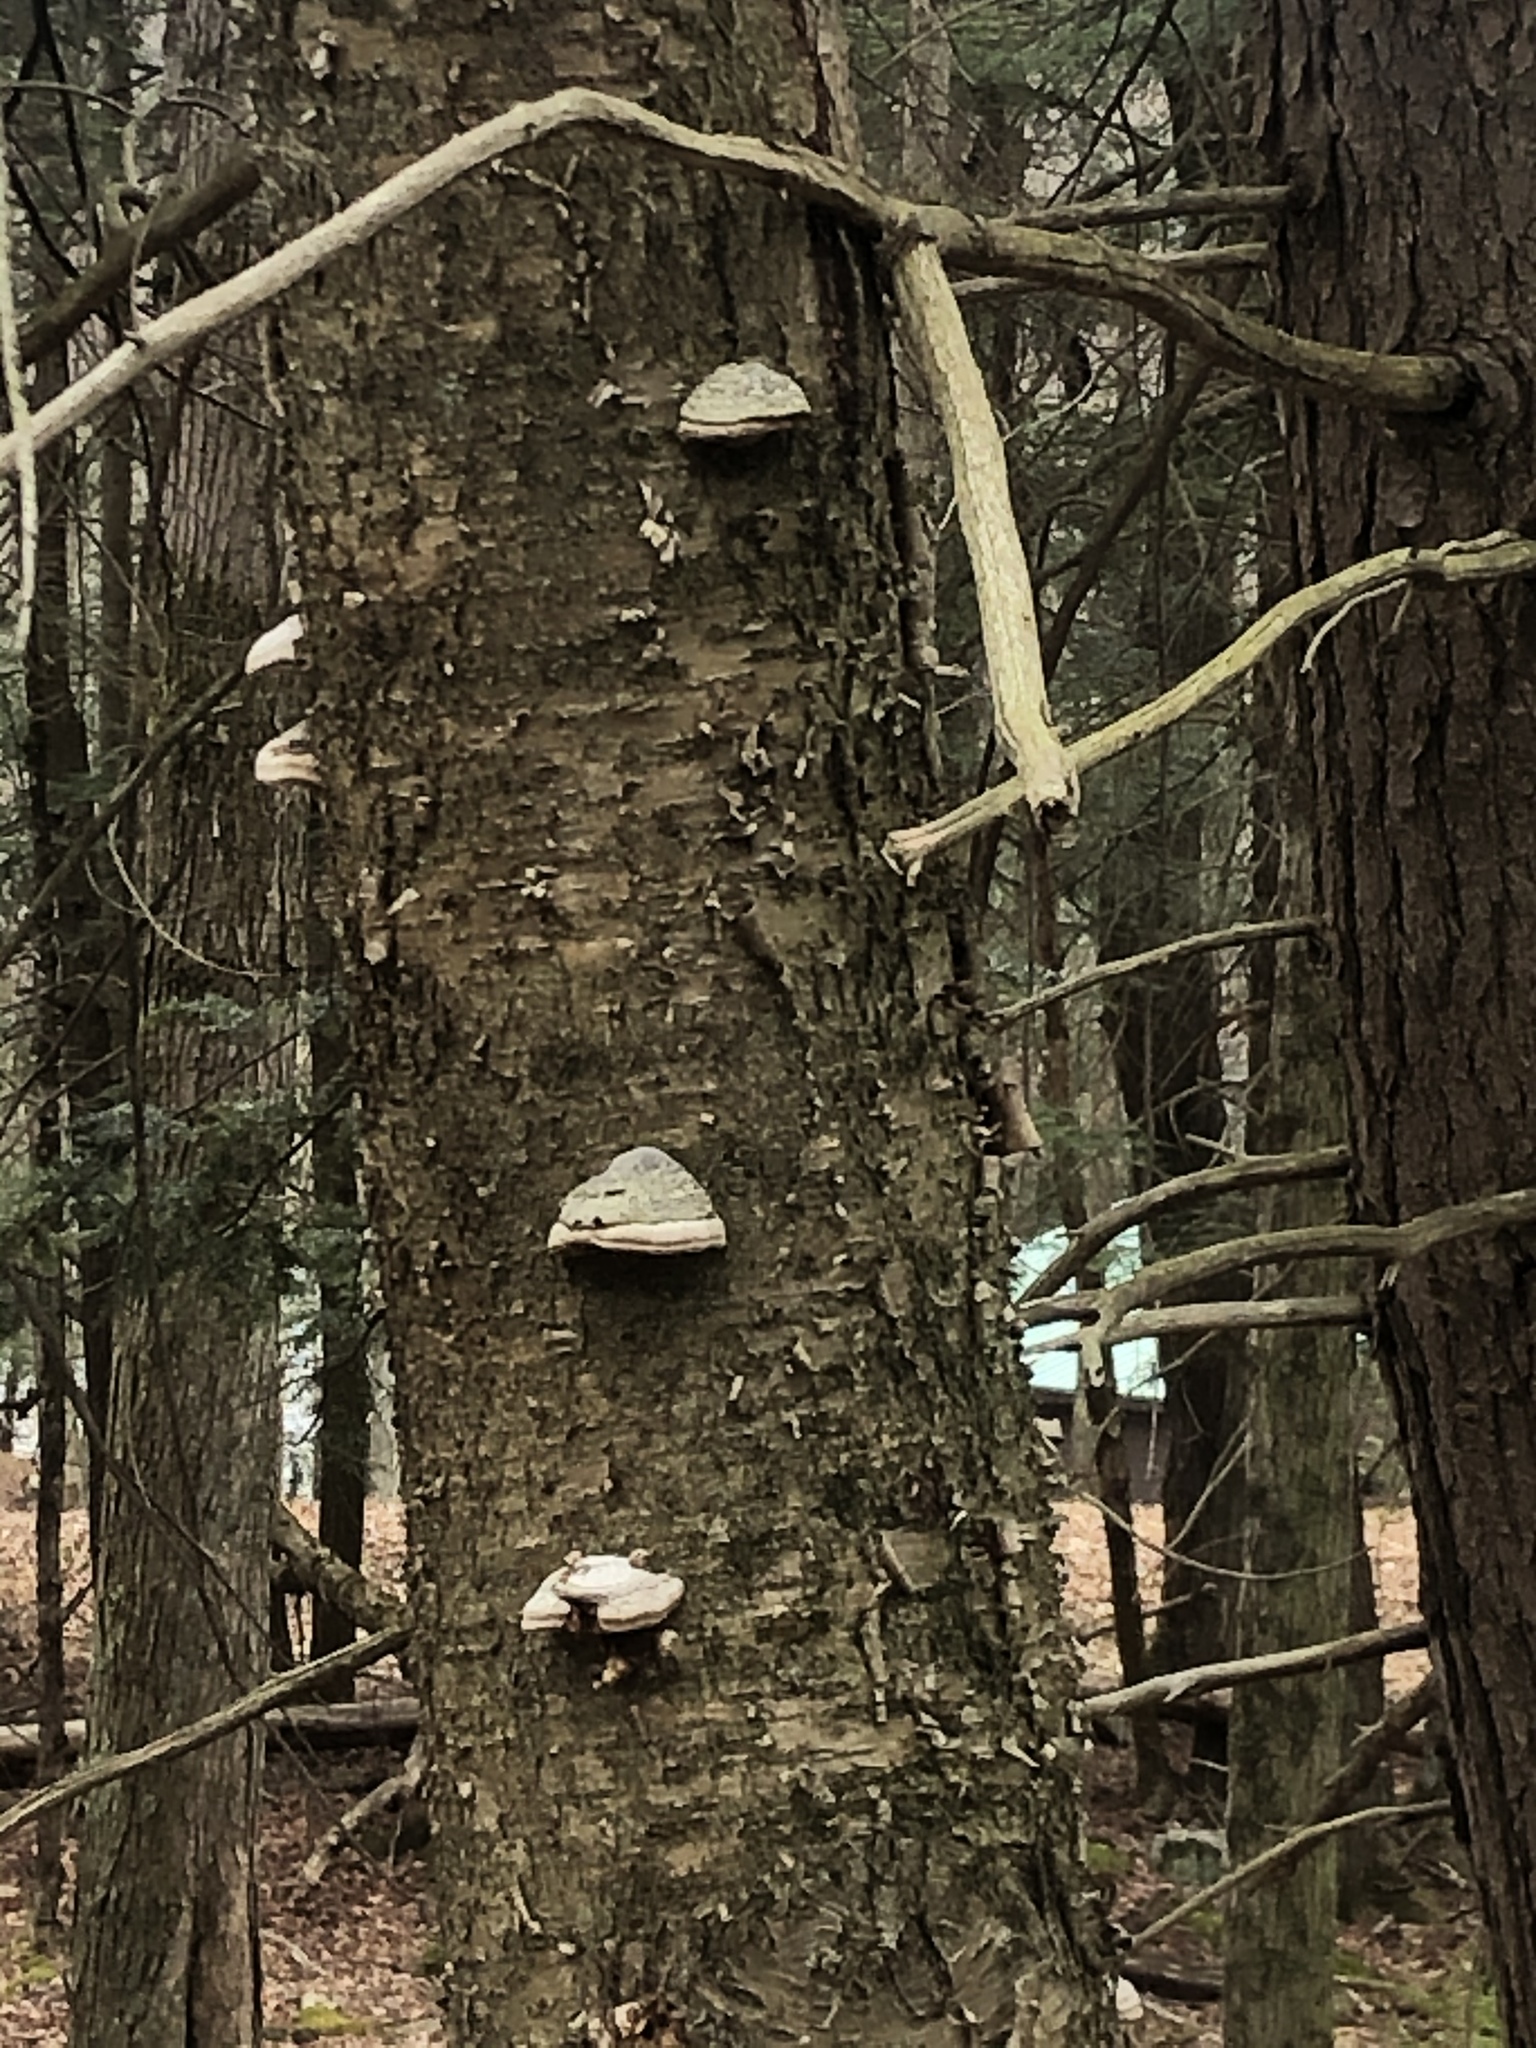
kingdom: Fungi
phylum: Basidiomycota
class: Agaricomycetes
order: Polyporales
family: Polyporaceae
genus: Fomes
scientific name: Fomes fomentarius
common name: Hoof fungus
